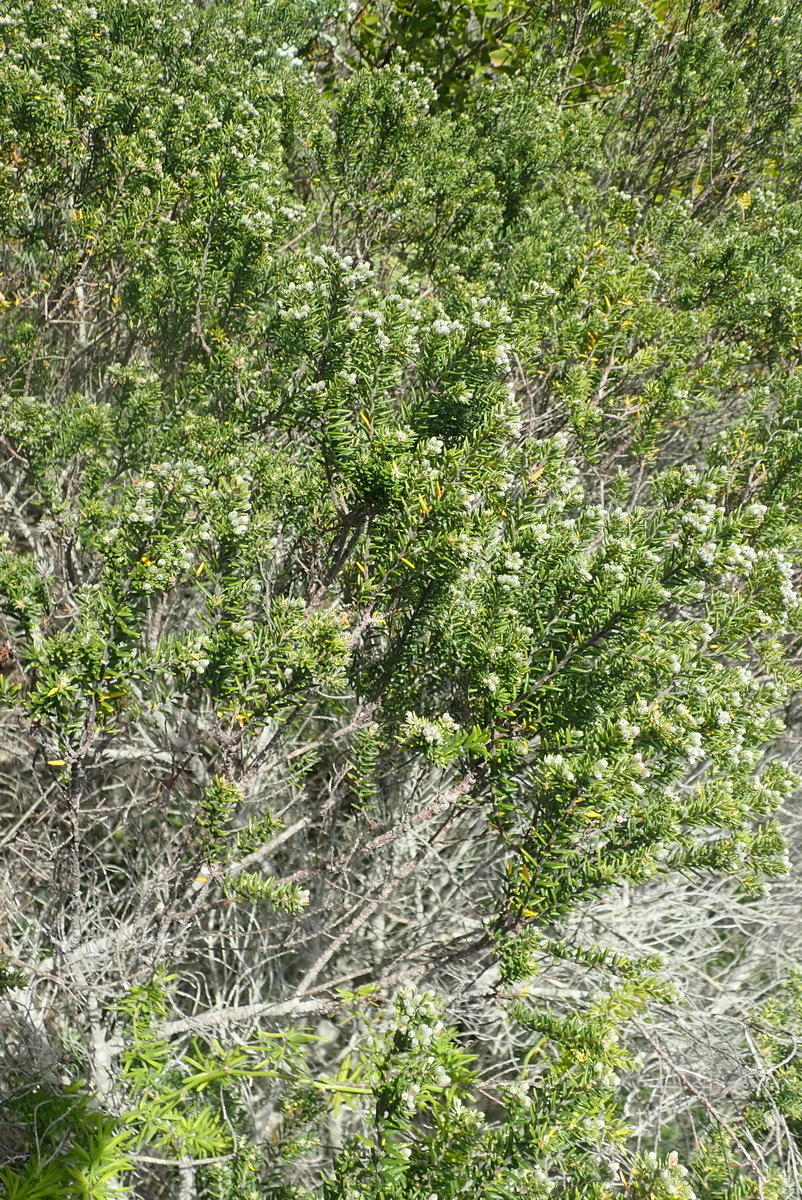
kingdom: Plantae
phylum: Tracheophyta
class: Magnoliopsida
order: Rosales
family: Rhamnaceae
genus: Phylica
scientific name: Phylica axillaris
